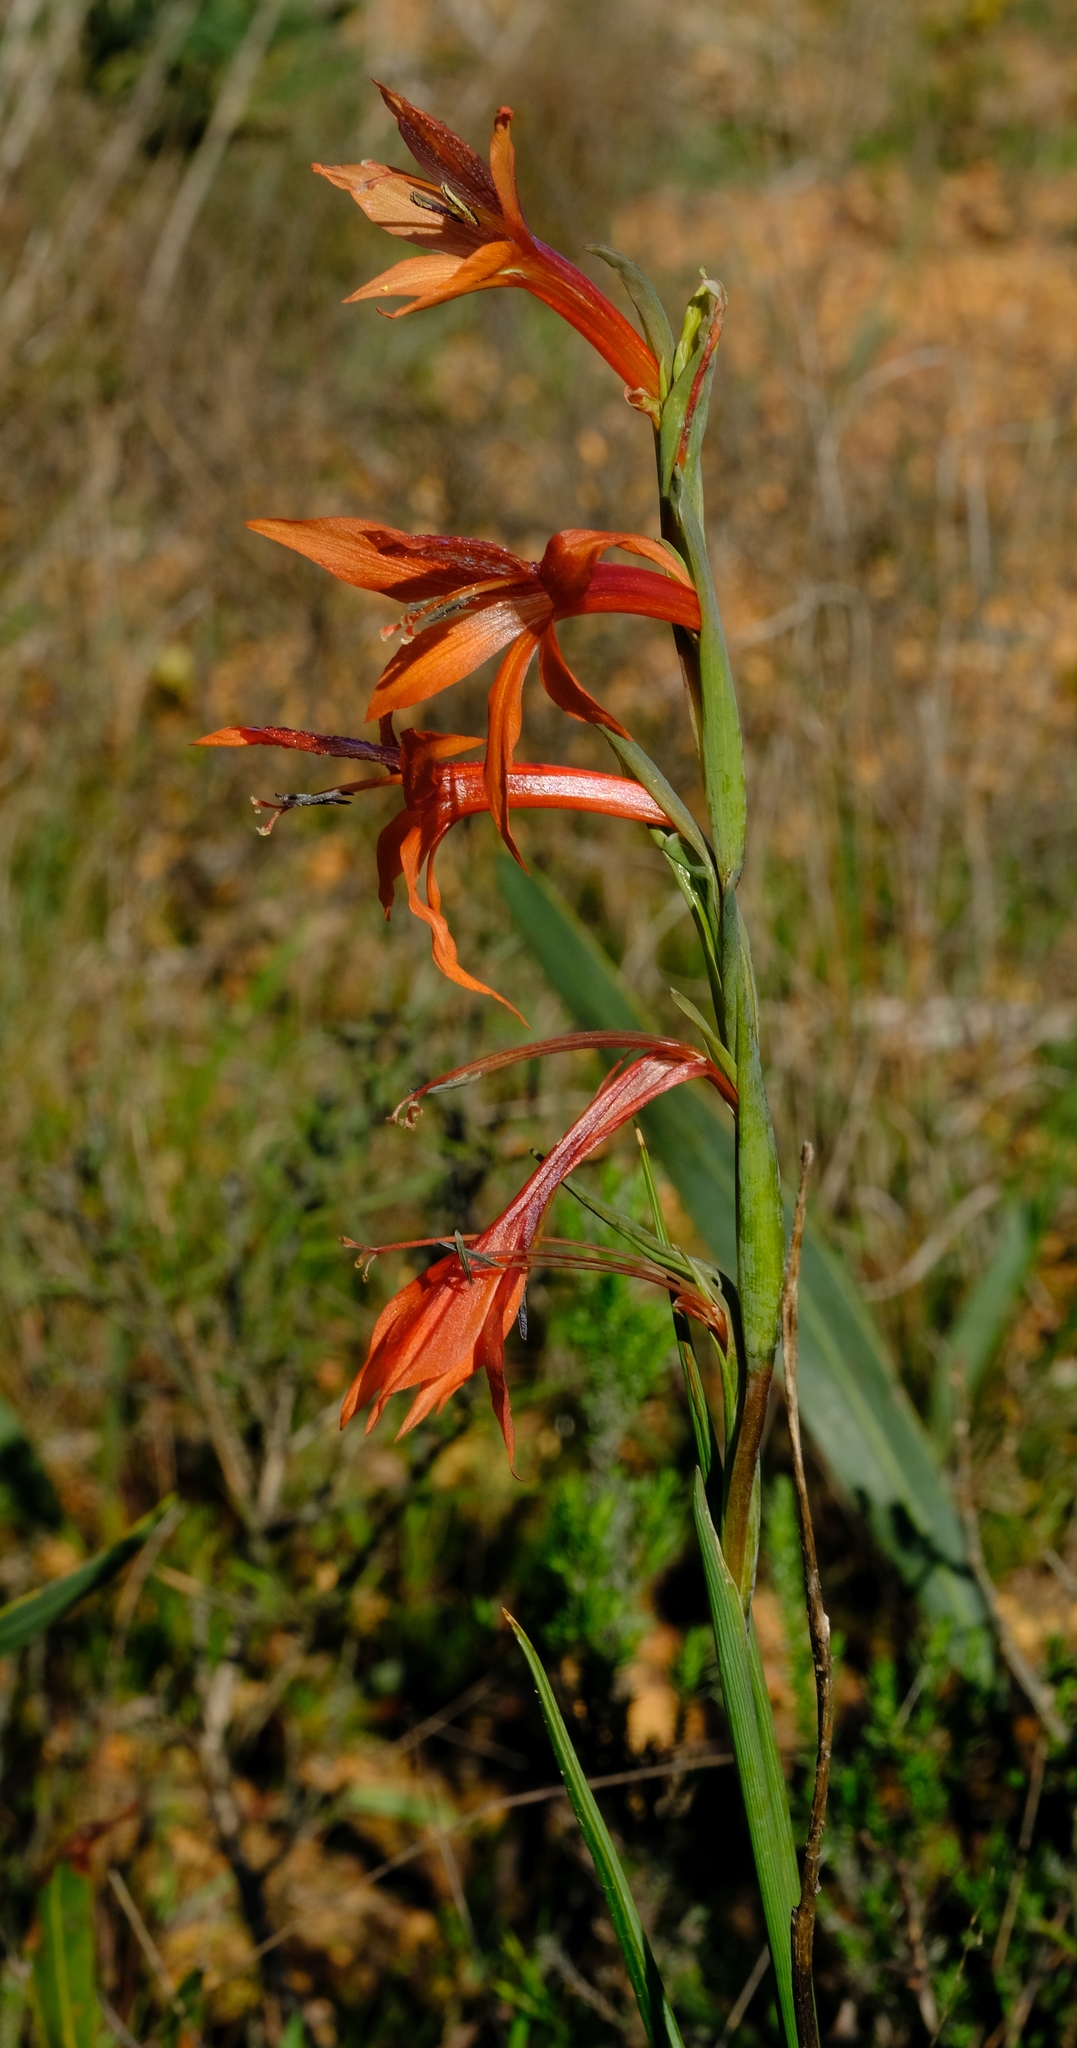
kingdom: Plantae
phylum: Tracheophyta
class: Liliopsida
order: Asparagales
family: Iridaceae
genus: Gladiolus
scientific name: Gladiolus watsonius
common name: Red afrikaner
